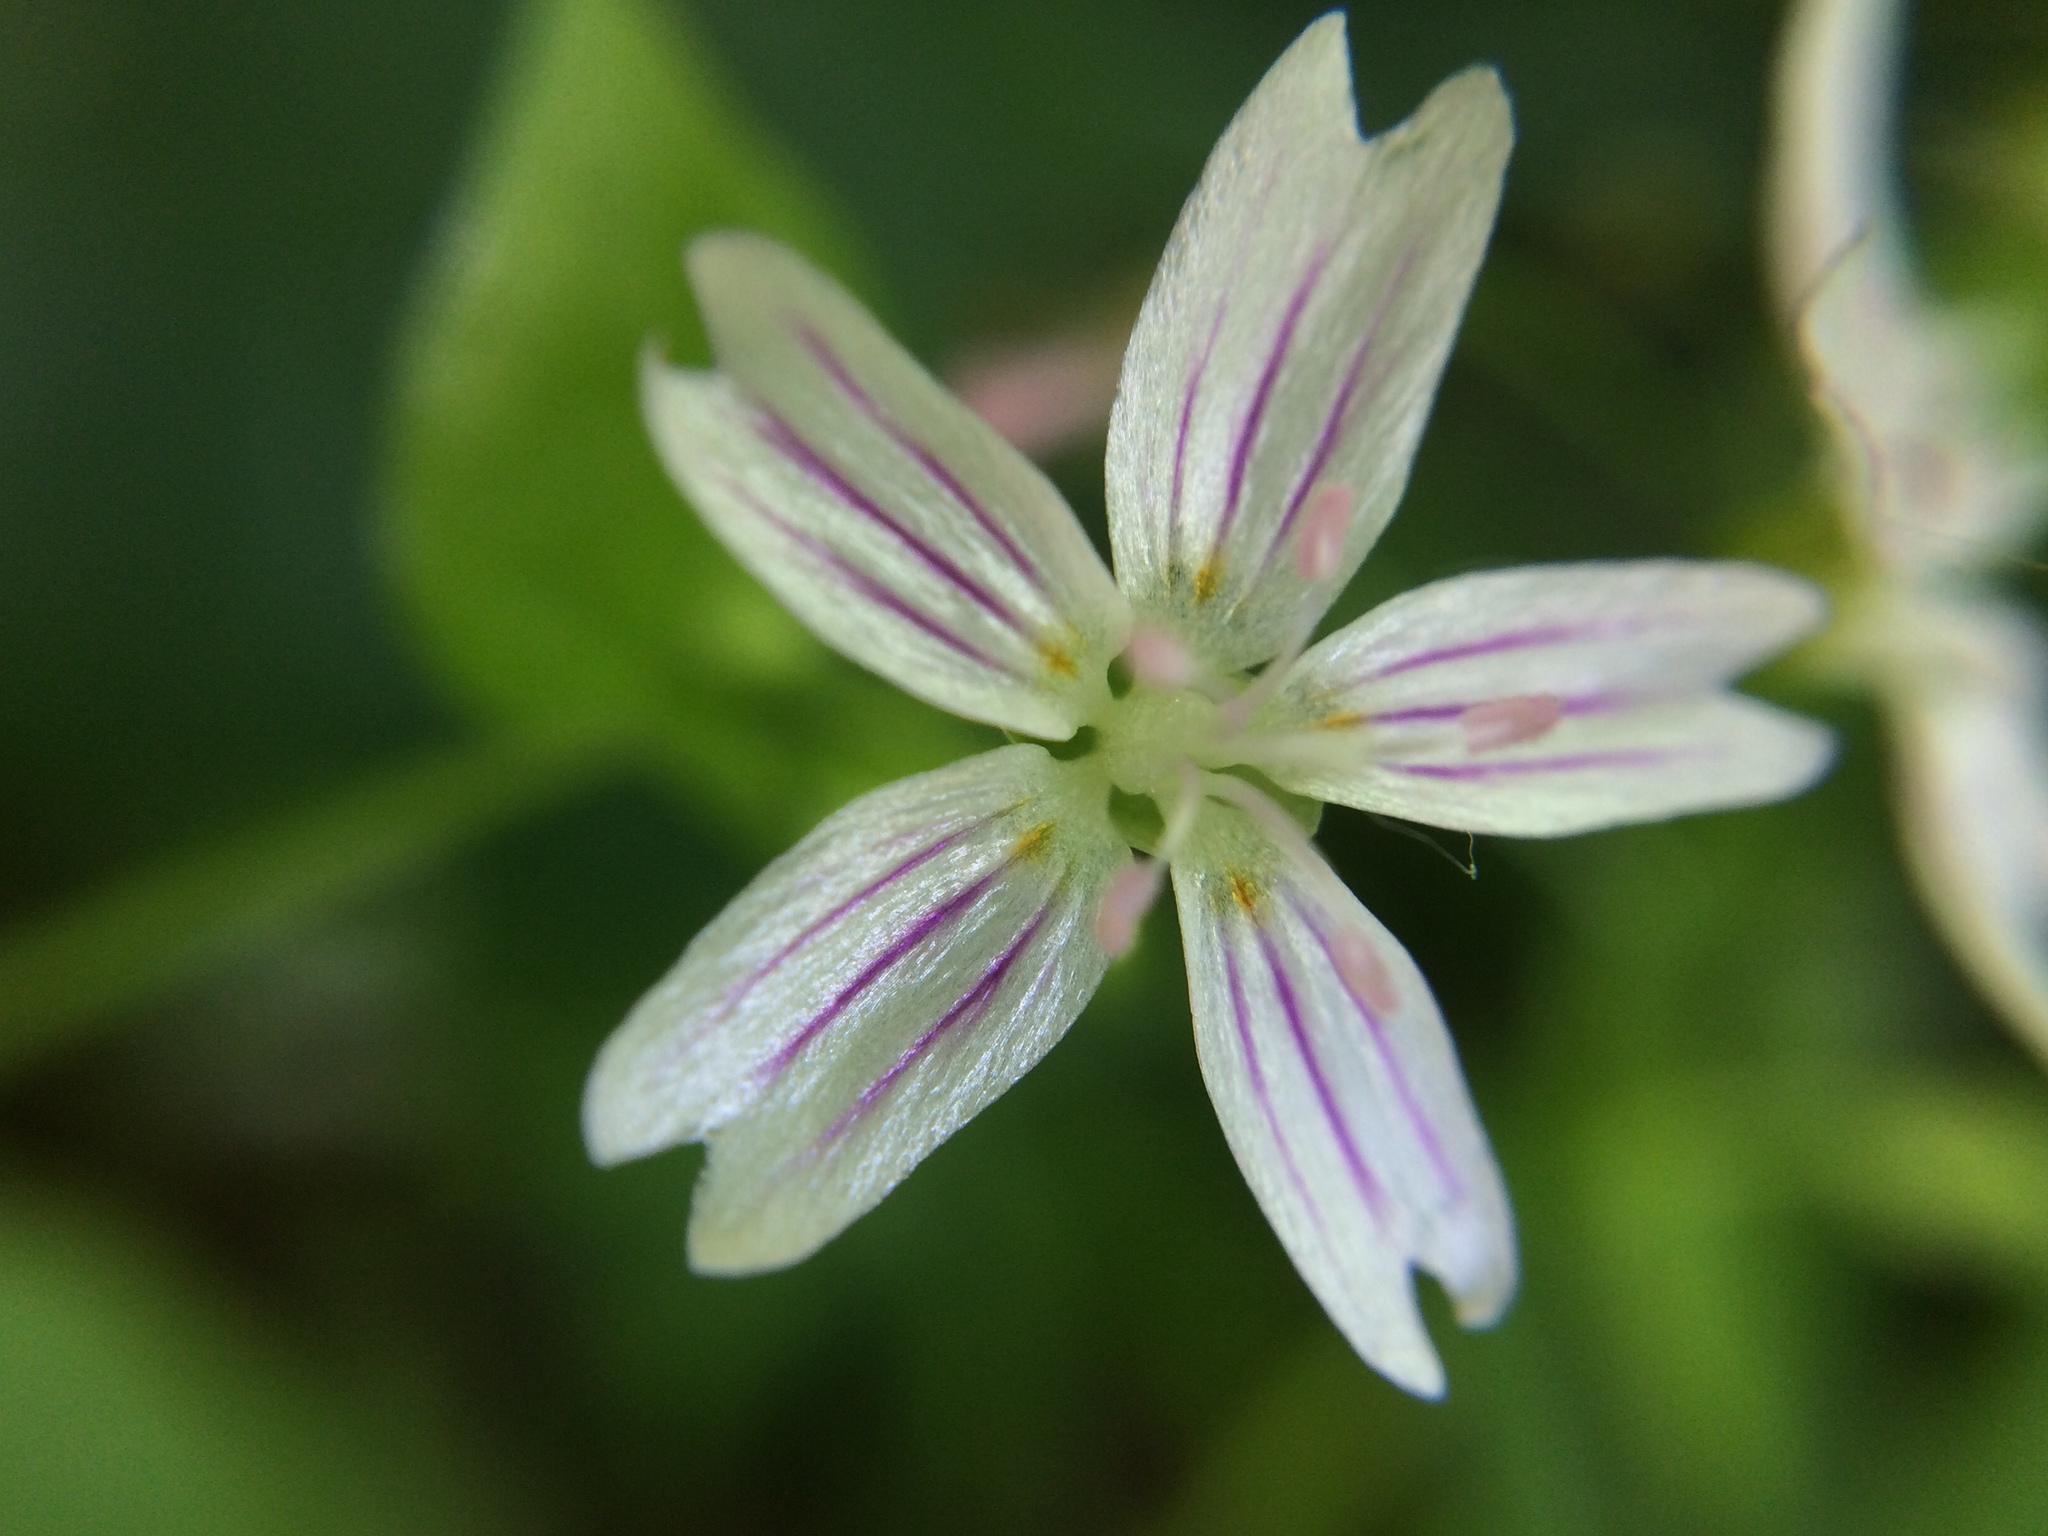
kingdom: Plantae
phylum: Tracheophyta
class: Magnoliopsida
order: Caryophyllales
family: Montiaceae
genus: Claytonia
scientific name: Claytonia sibirica
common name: Pink purslane
